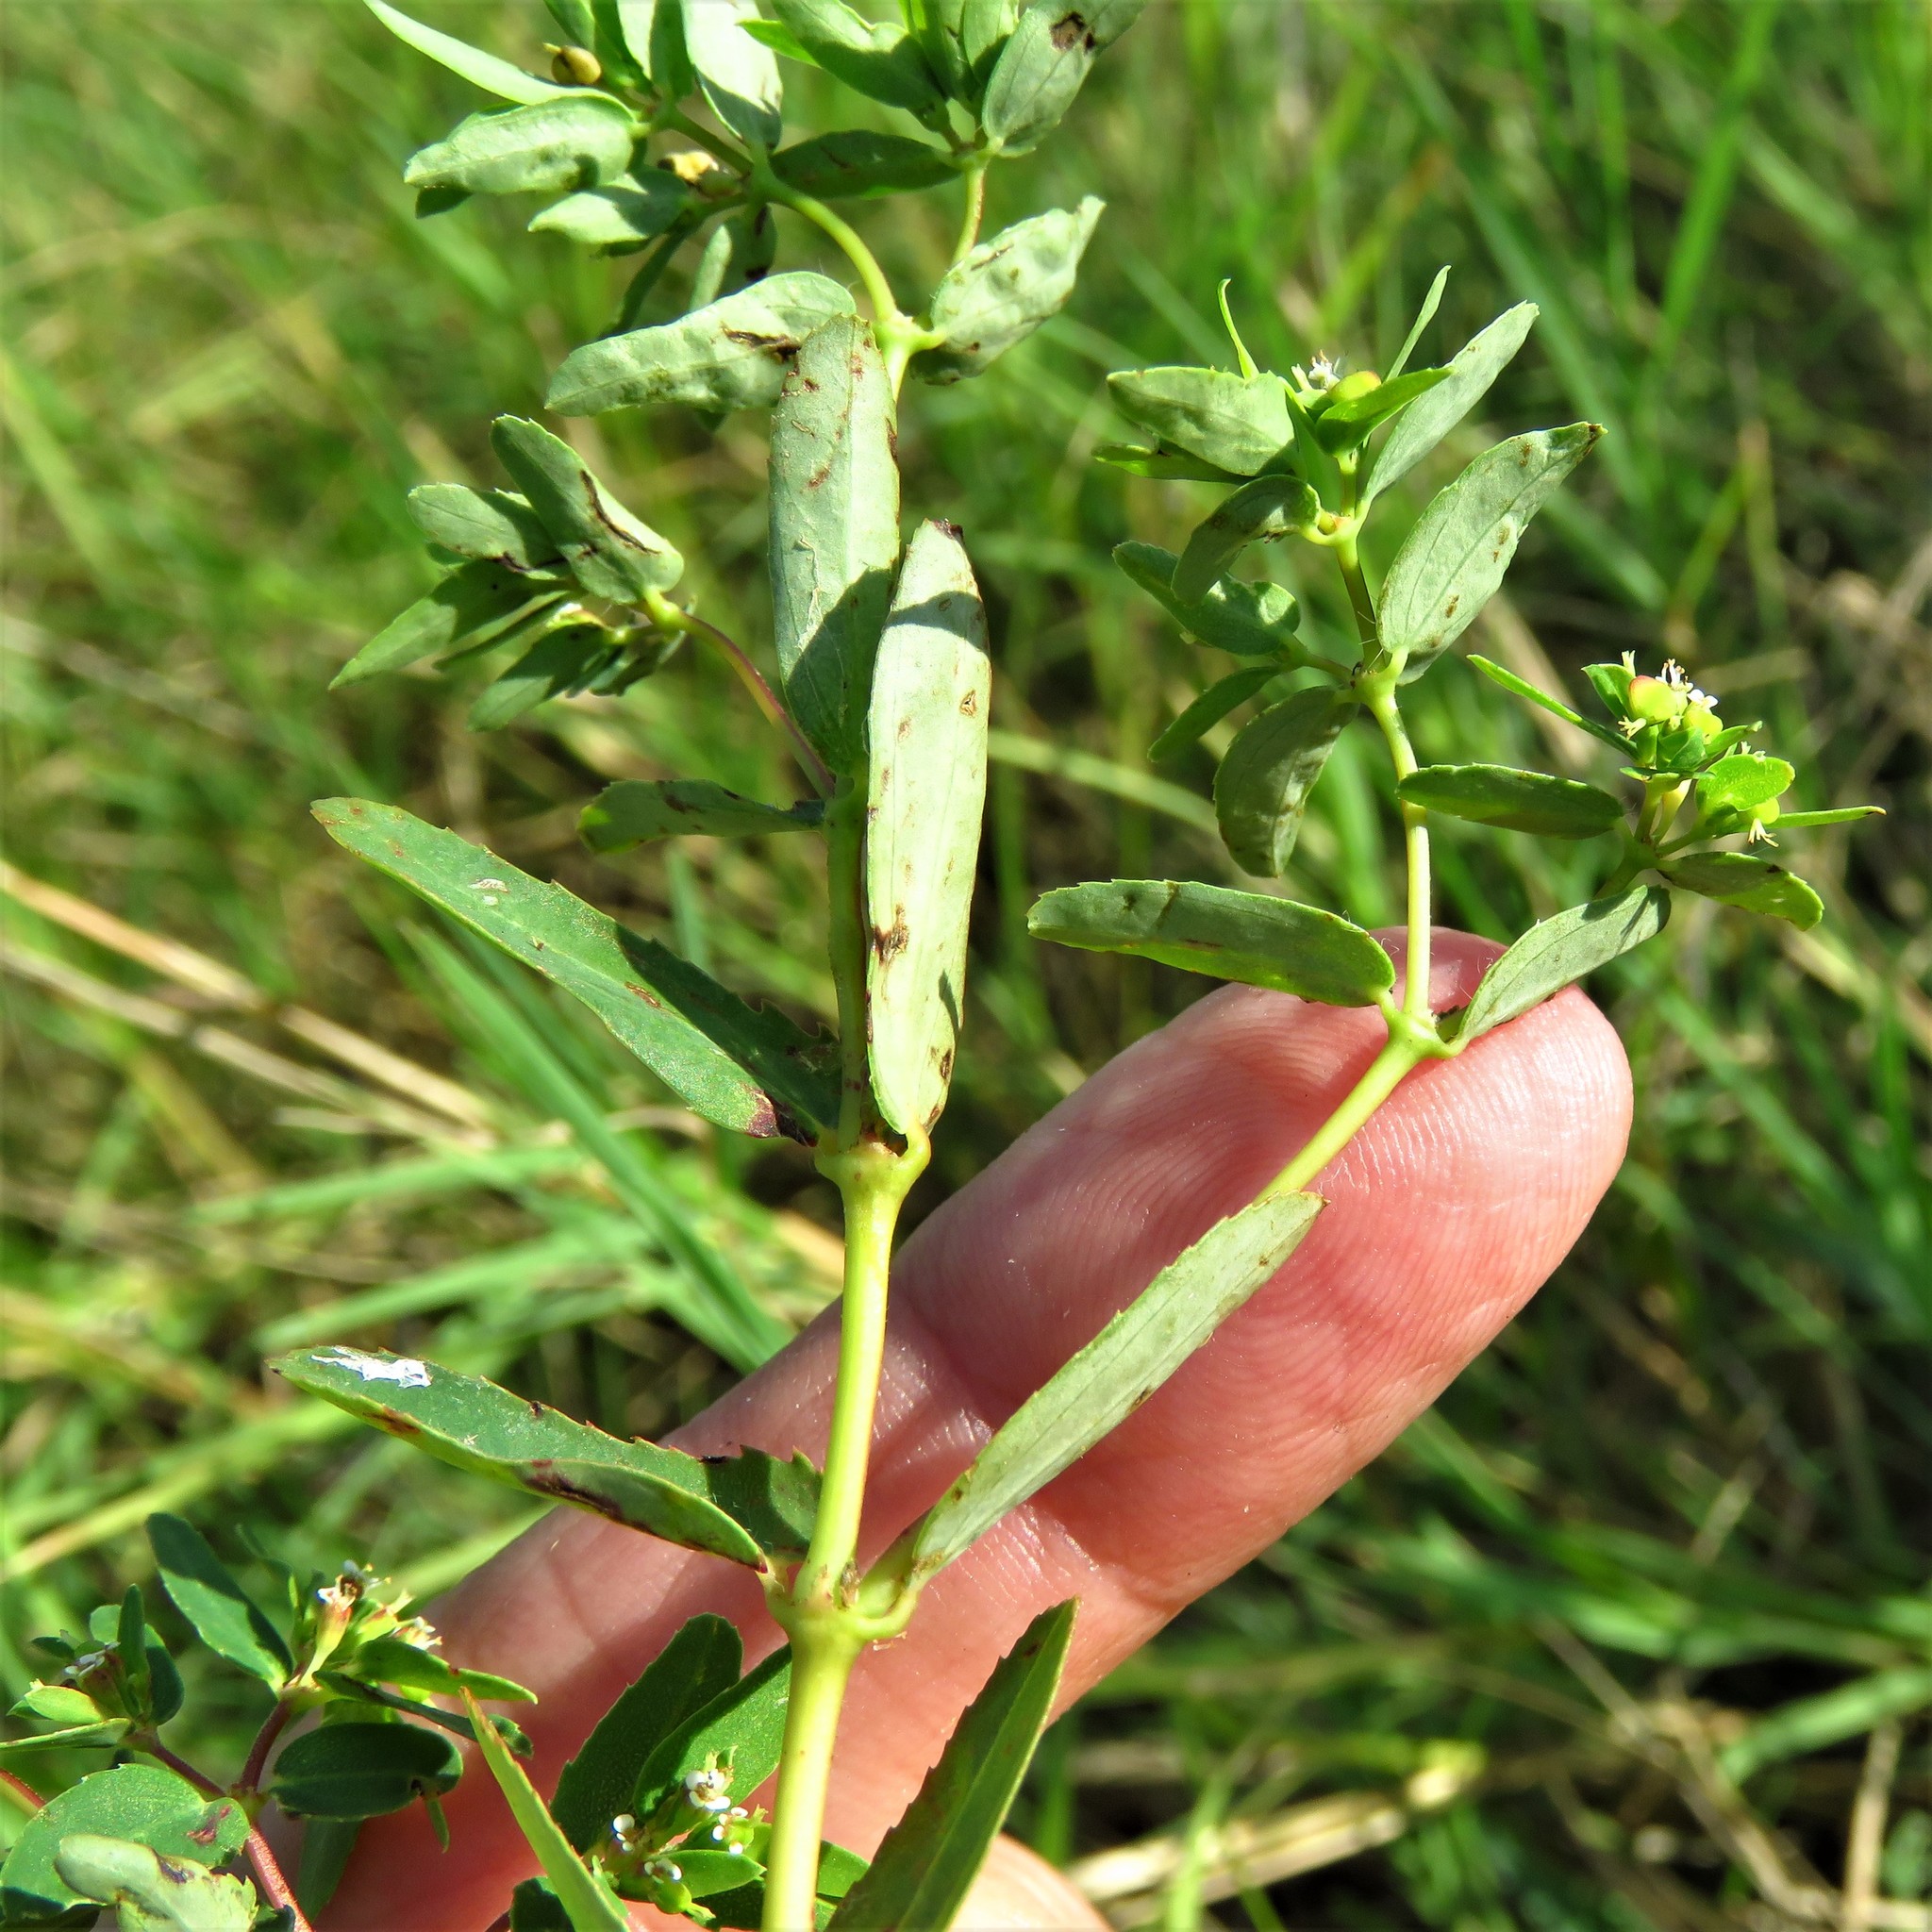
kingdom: Plantae
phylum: Tracheophyta
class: Magnoliopsida
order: Malpighiales
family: Euphorbiaceae
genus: Euphorbia
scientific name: Euphorbia nutans
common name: Eyebane
